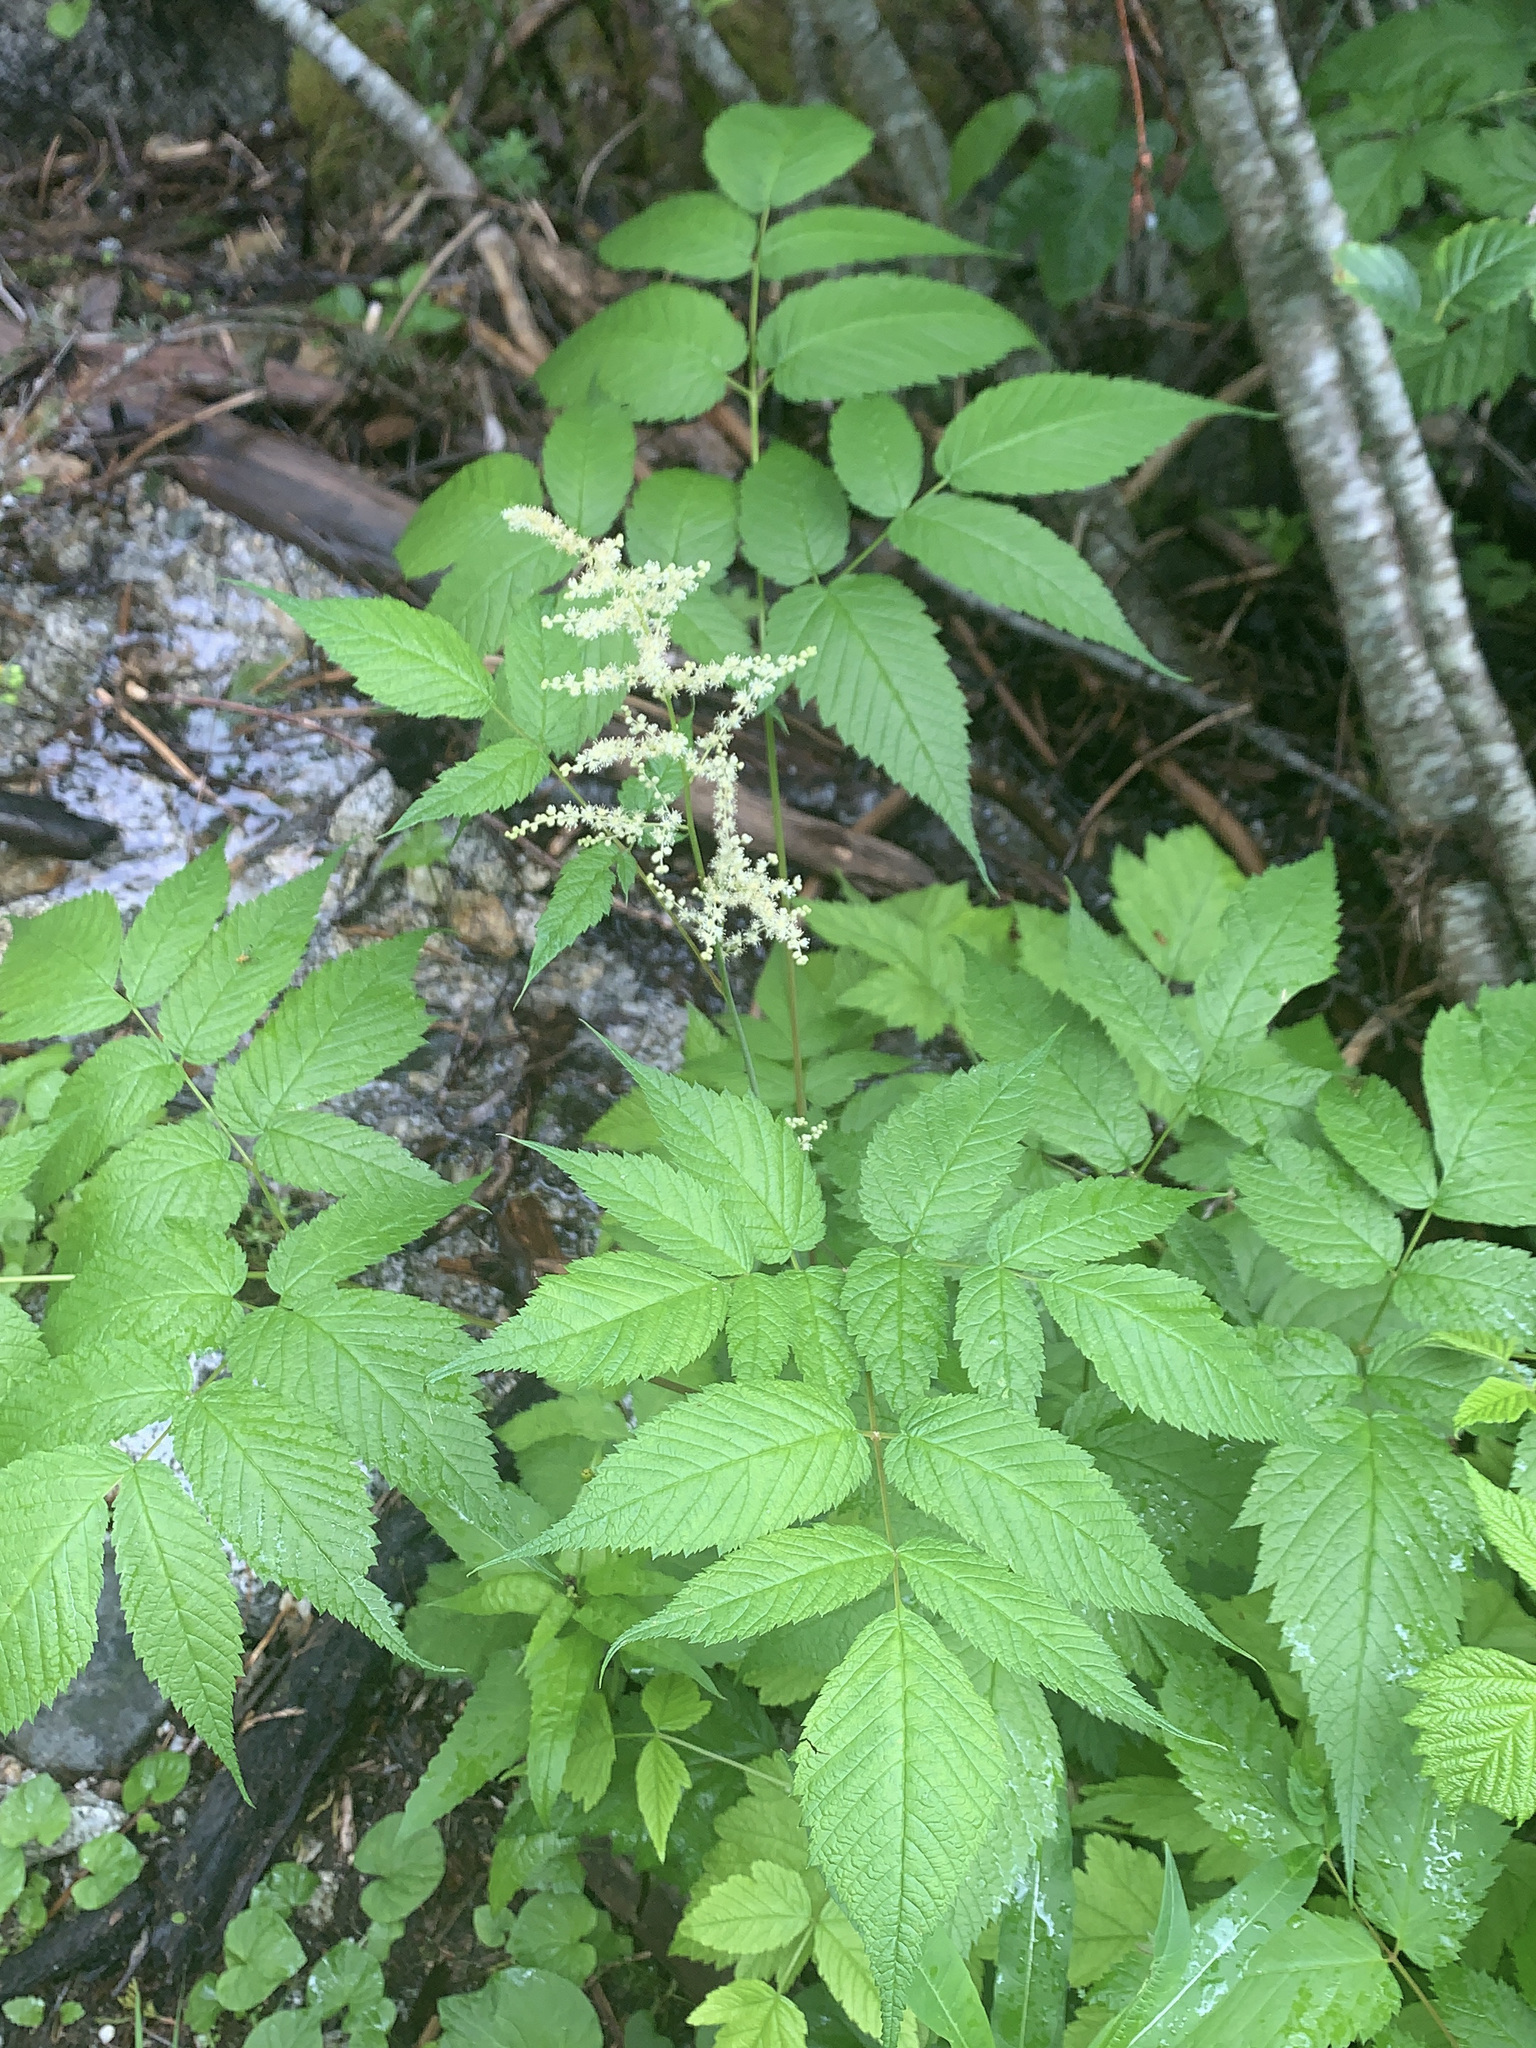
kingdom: Plantae
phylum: Tracheophyta
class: Magnoliopsida
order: Rosales
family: Rosaceae
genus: Aruncus
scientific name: Aruncus dioicus
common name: Buck's-beard
